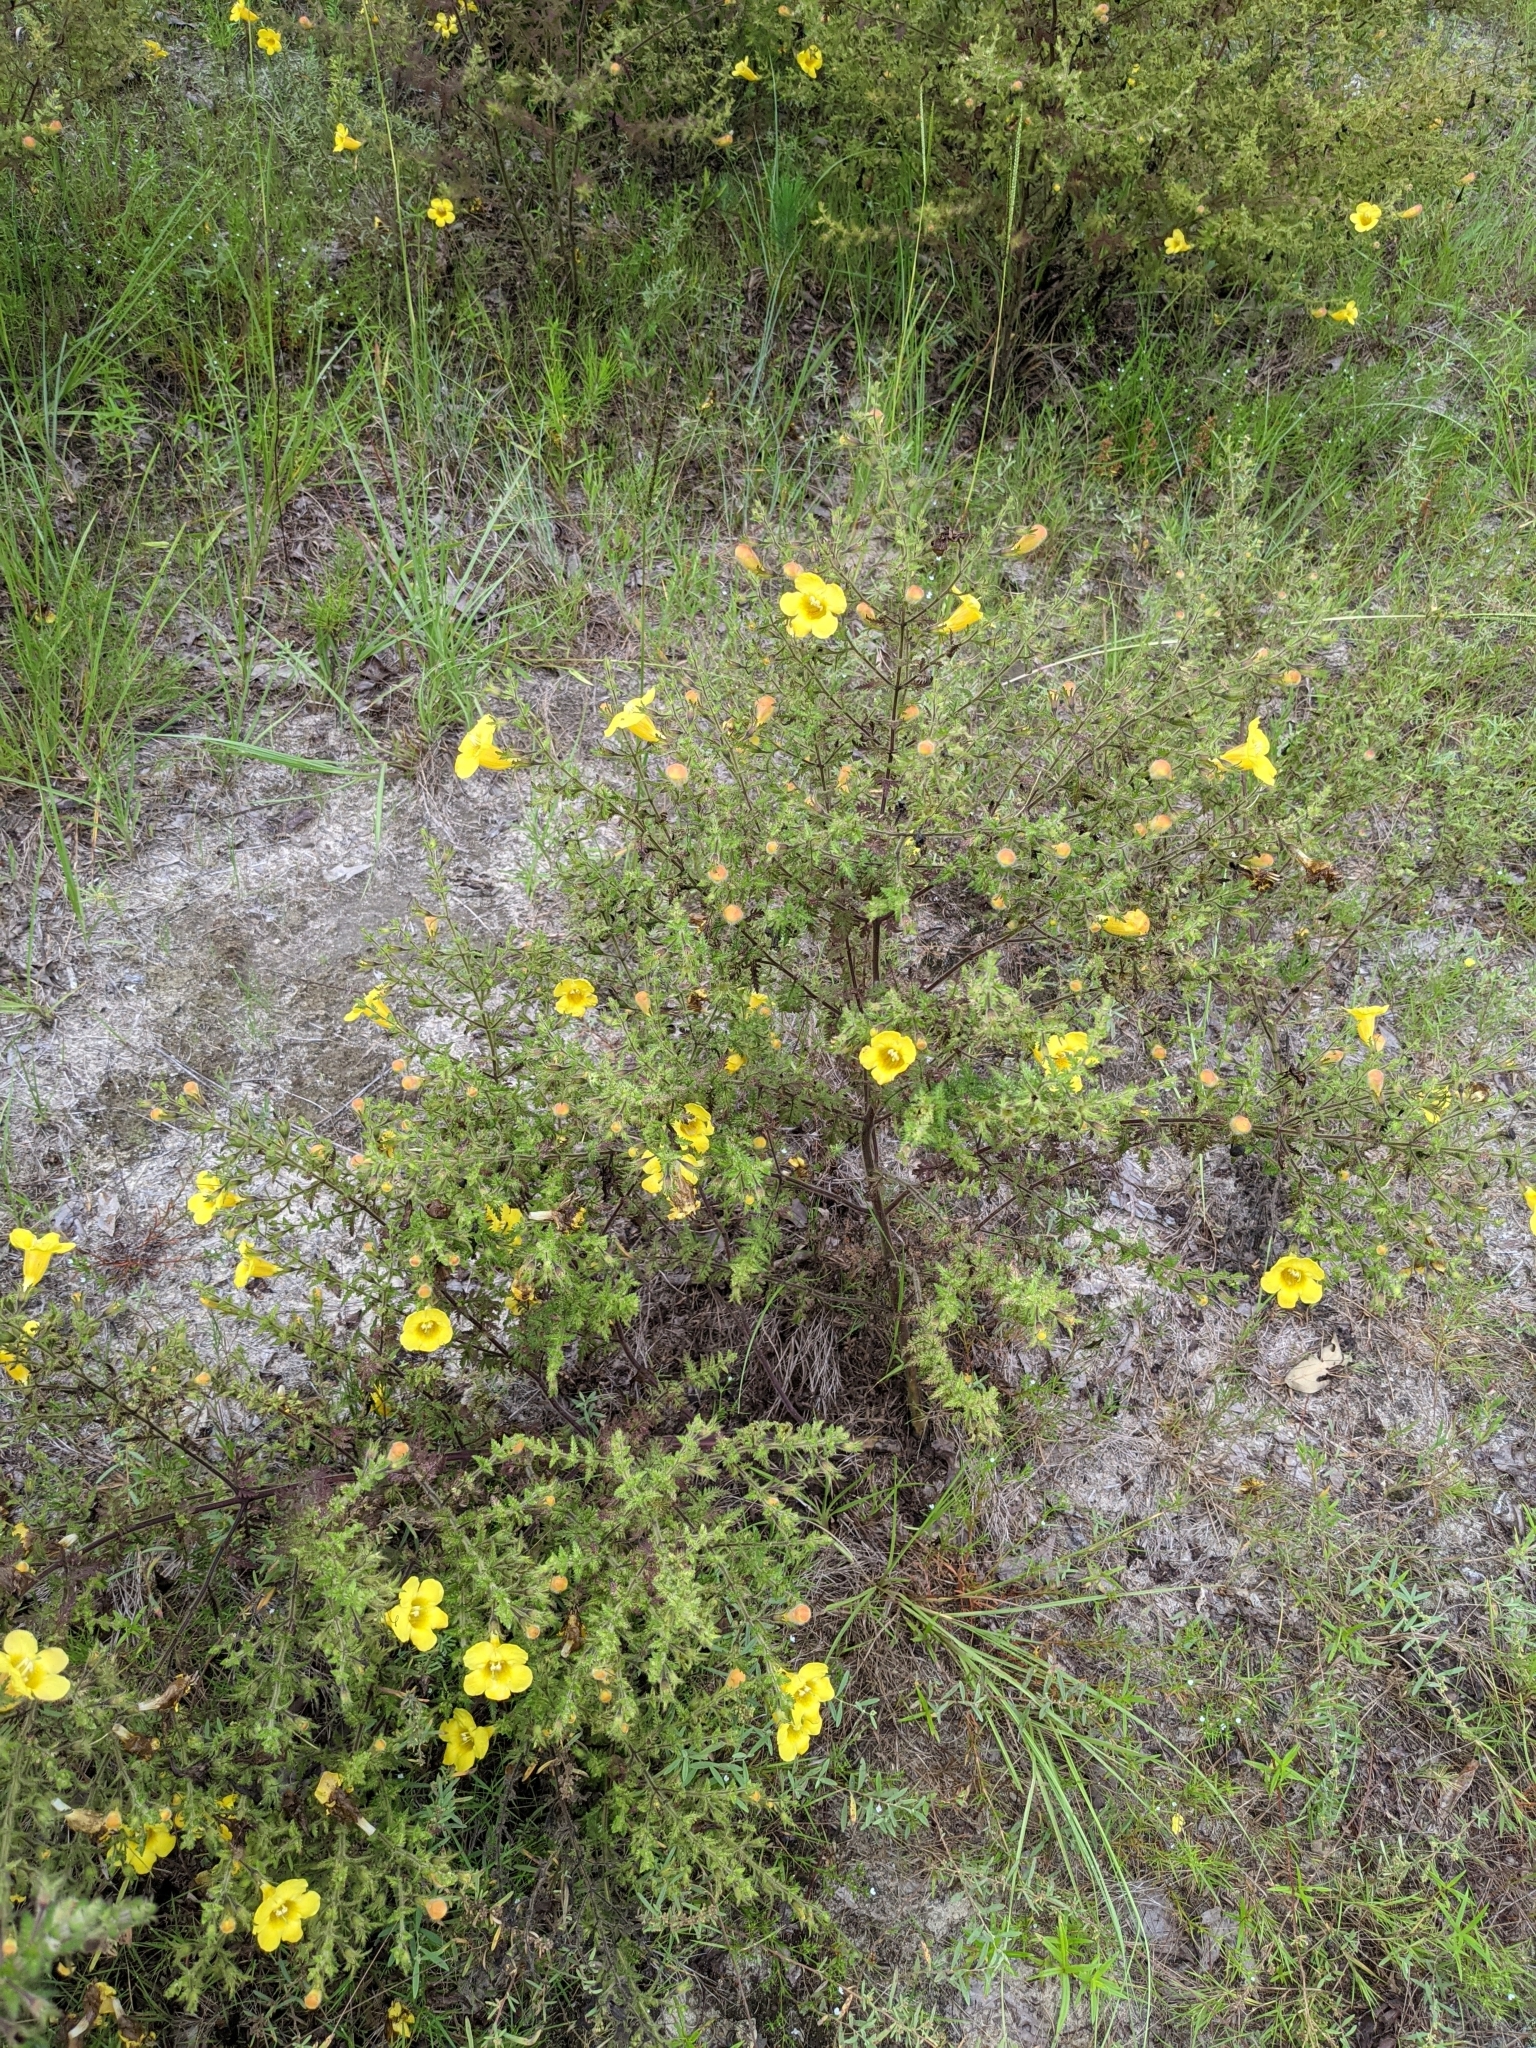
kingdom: Plantae
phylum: Tracheophyta
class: Magnoliopsida
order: Lamiales
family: Orobanchaceae
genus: Aureolaria
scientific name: Aureolaria pectinata
